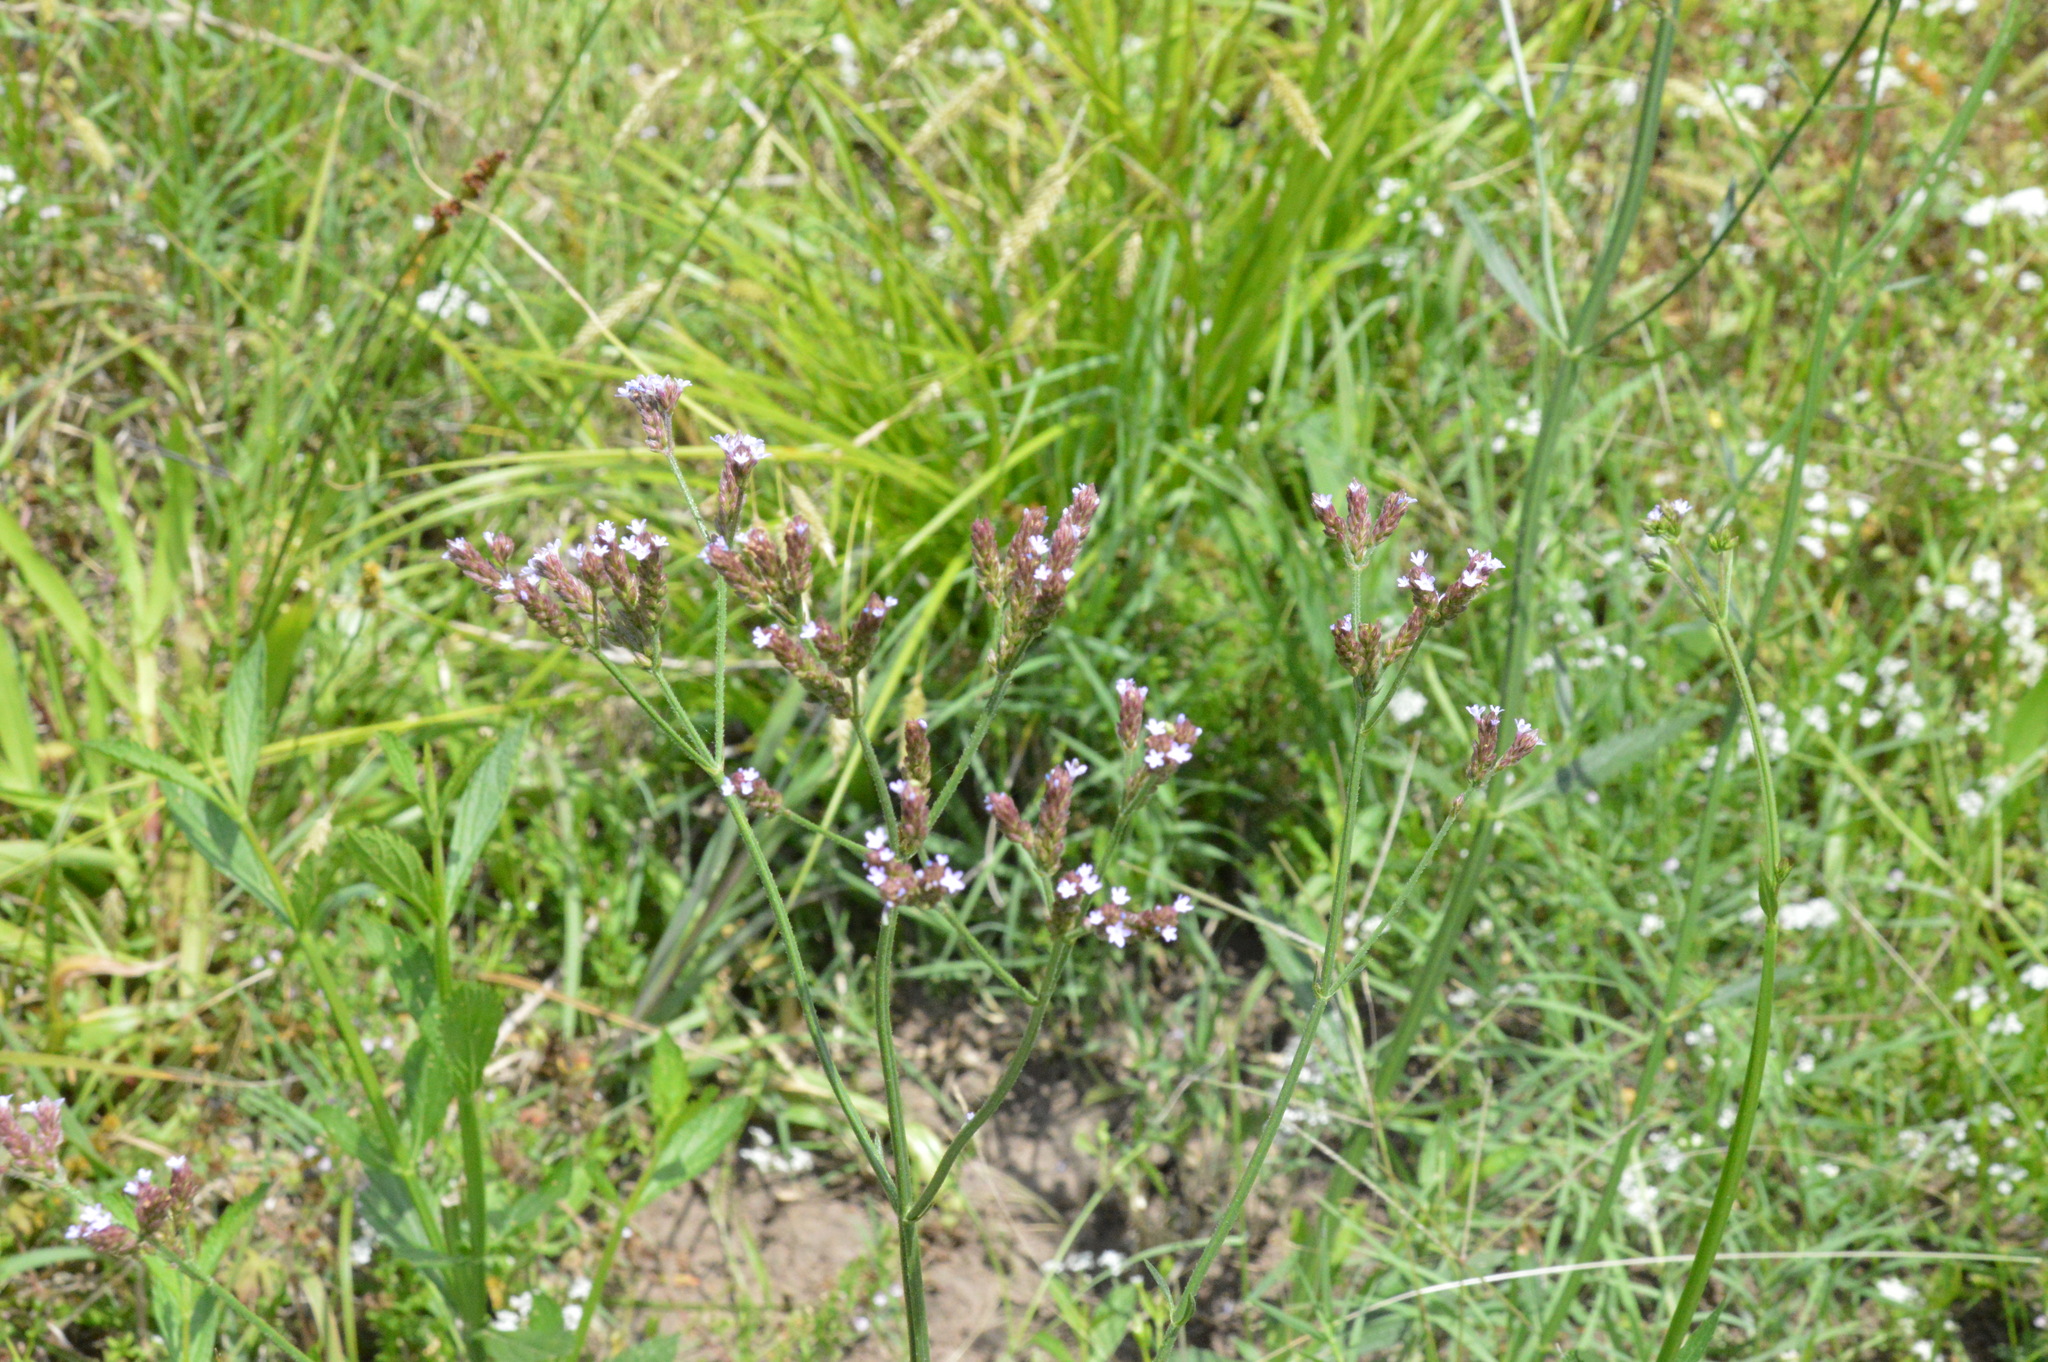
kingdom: Plantae
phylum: Tracheophyta
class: Magnoliopsida
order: Lamiales
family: Verbenaceae
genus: Verbena
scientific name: Verbena brasiliensis
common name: Brazilian vervain
